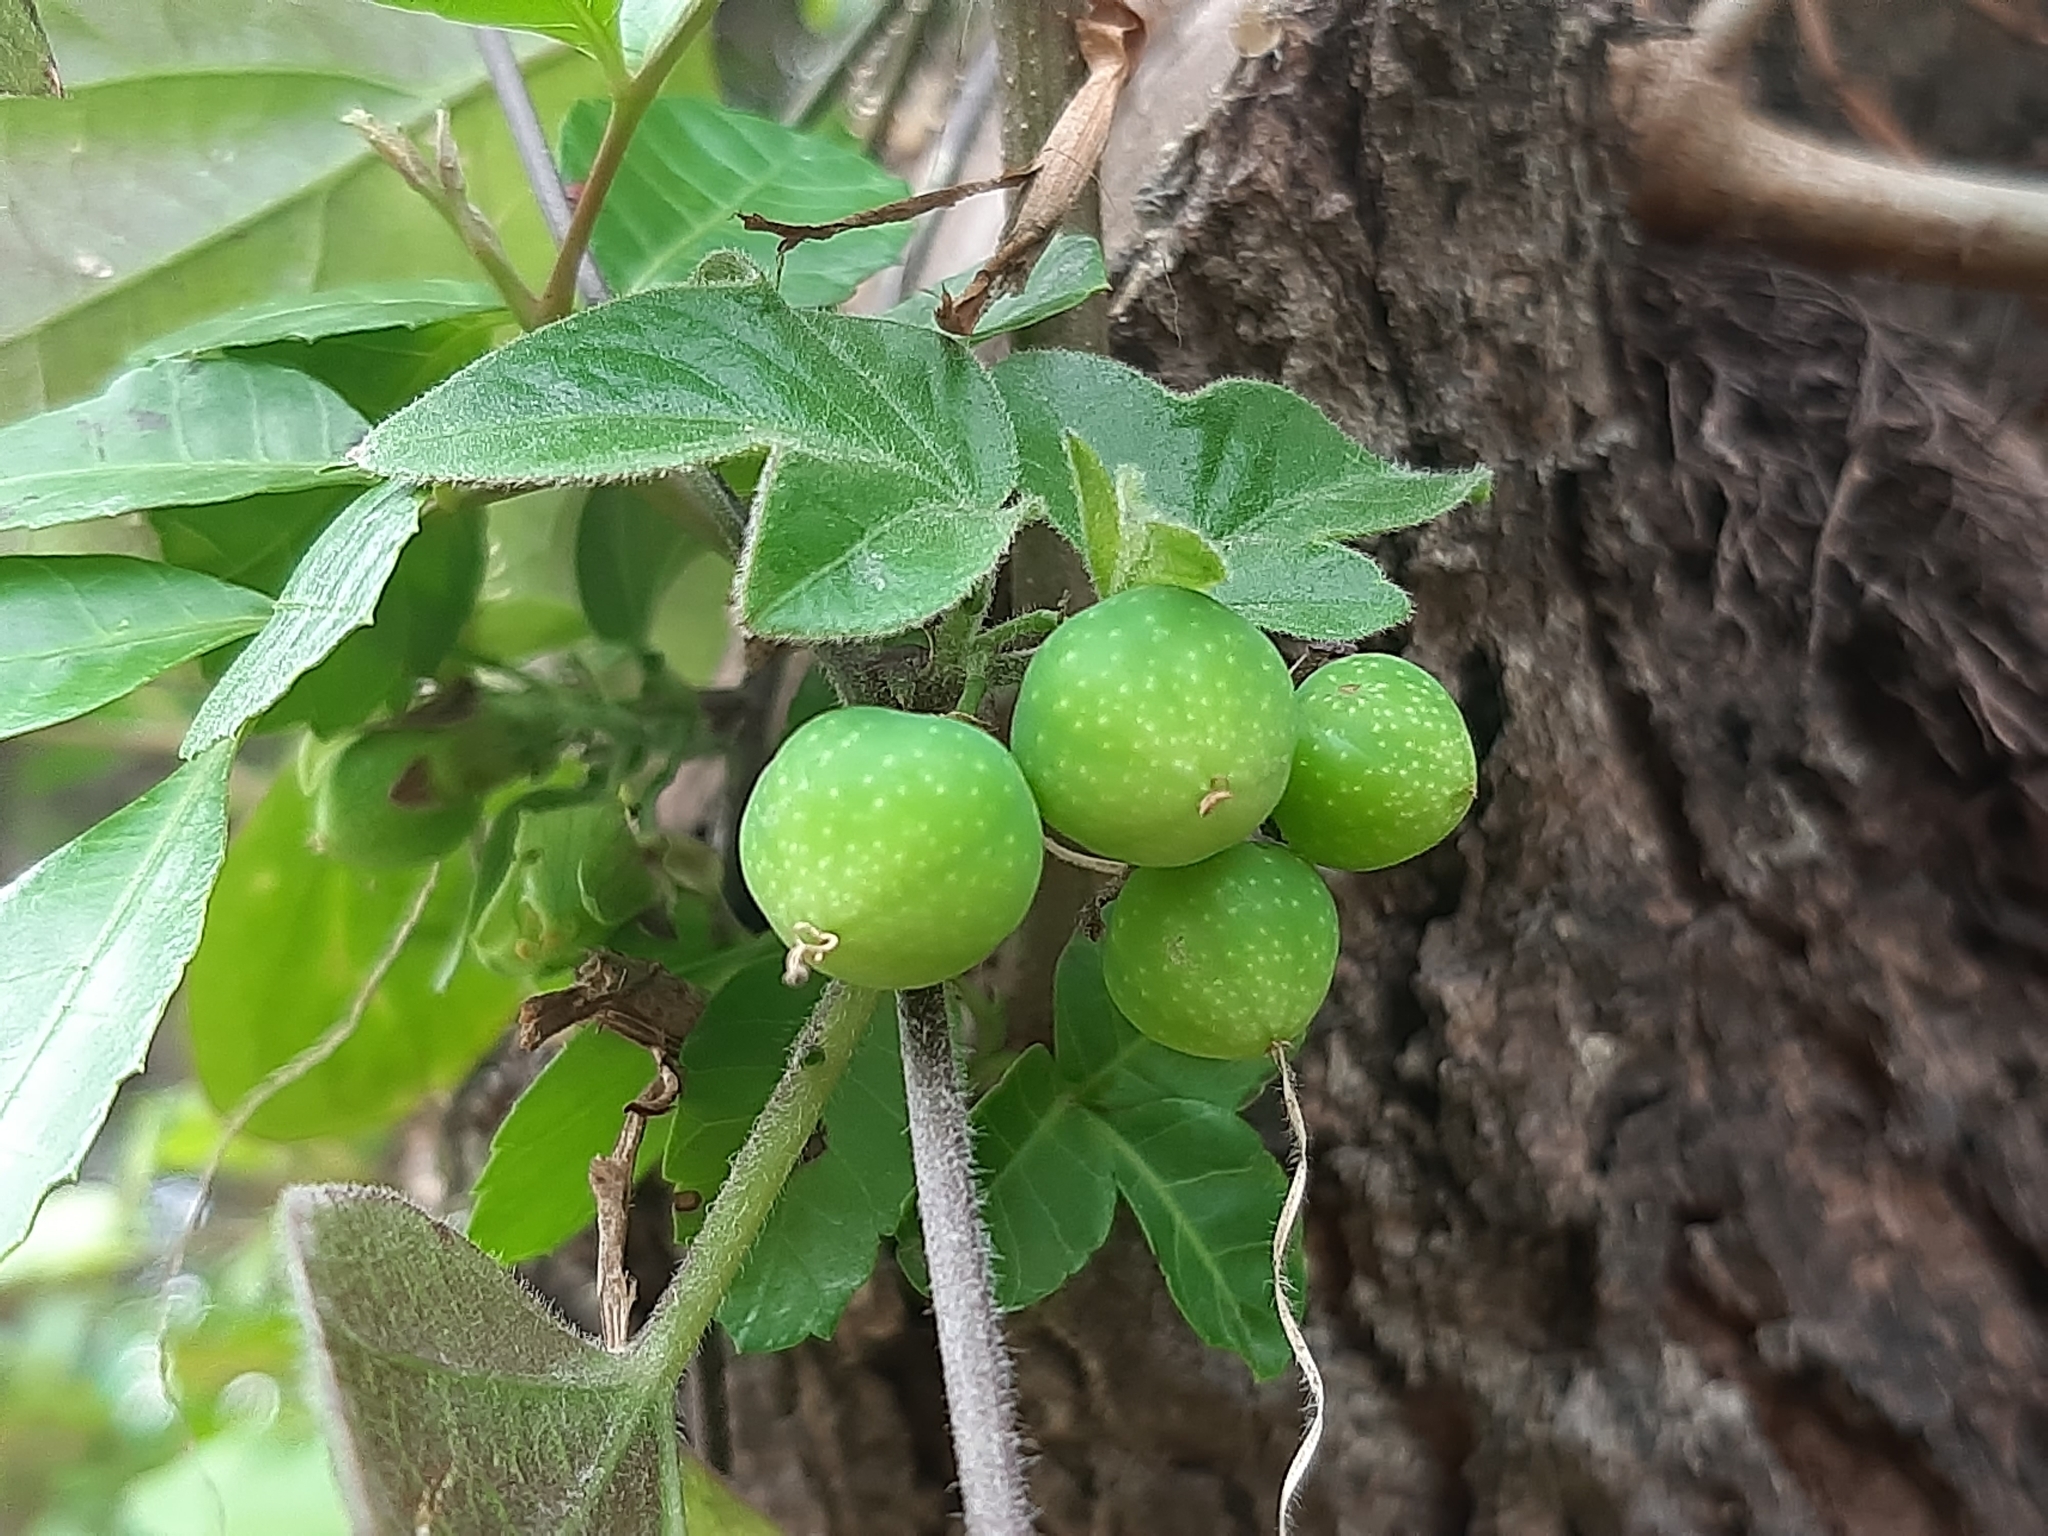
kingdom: Plantae
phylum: Tracheophyta
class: Magnoliopsida
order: Malpighiales
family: Passifloraceae
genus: Passiflora
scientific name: Passiflora suberosa
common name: Wild passionfruit
